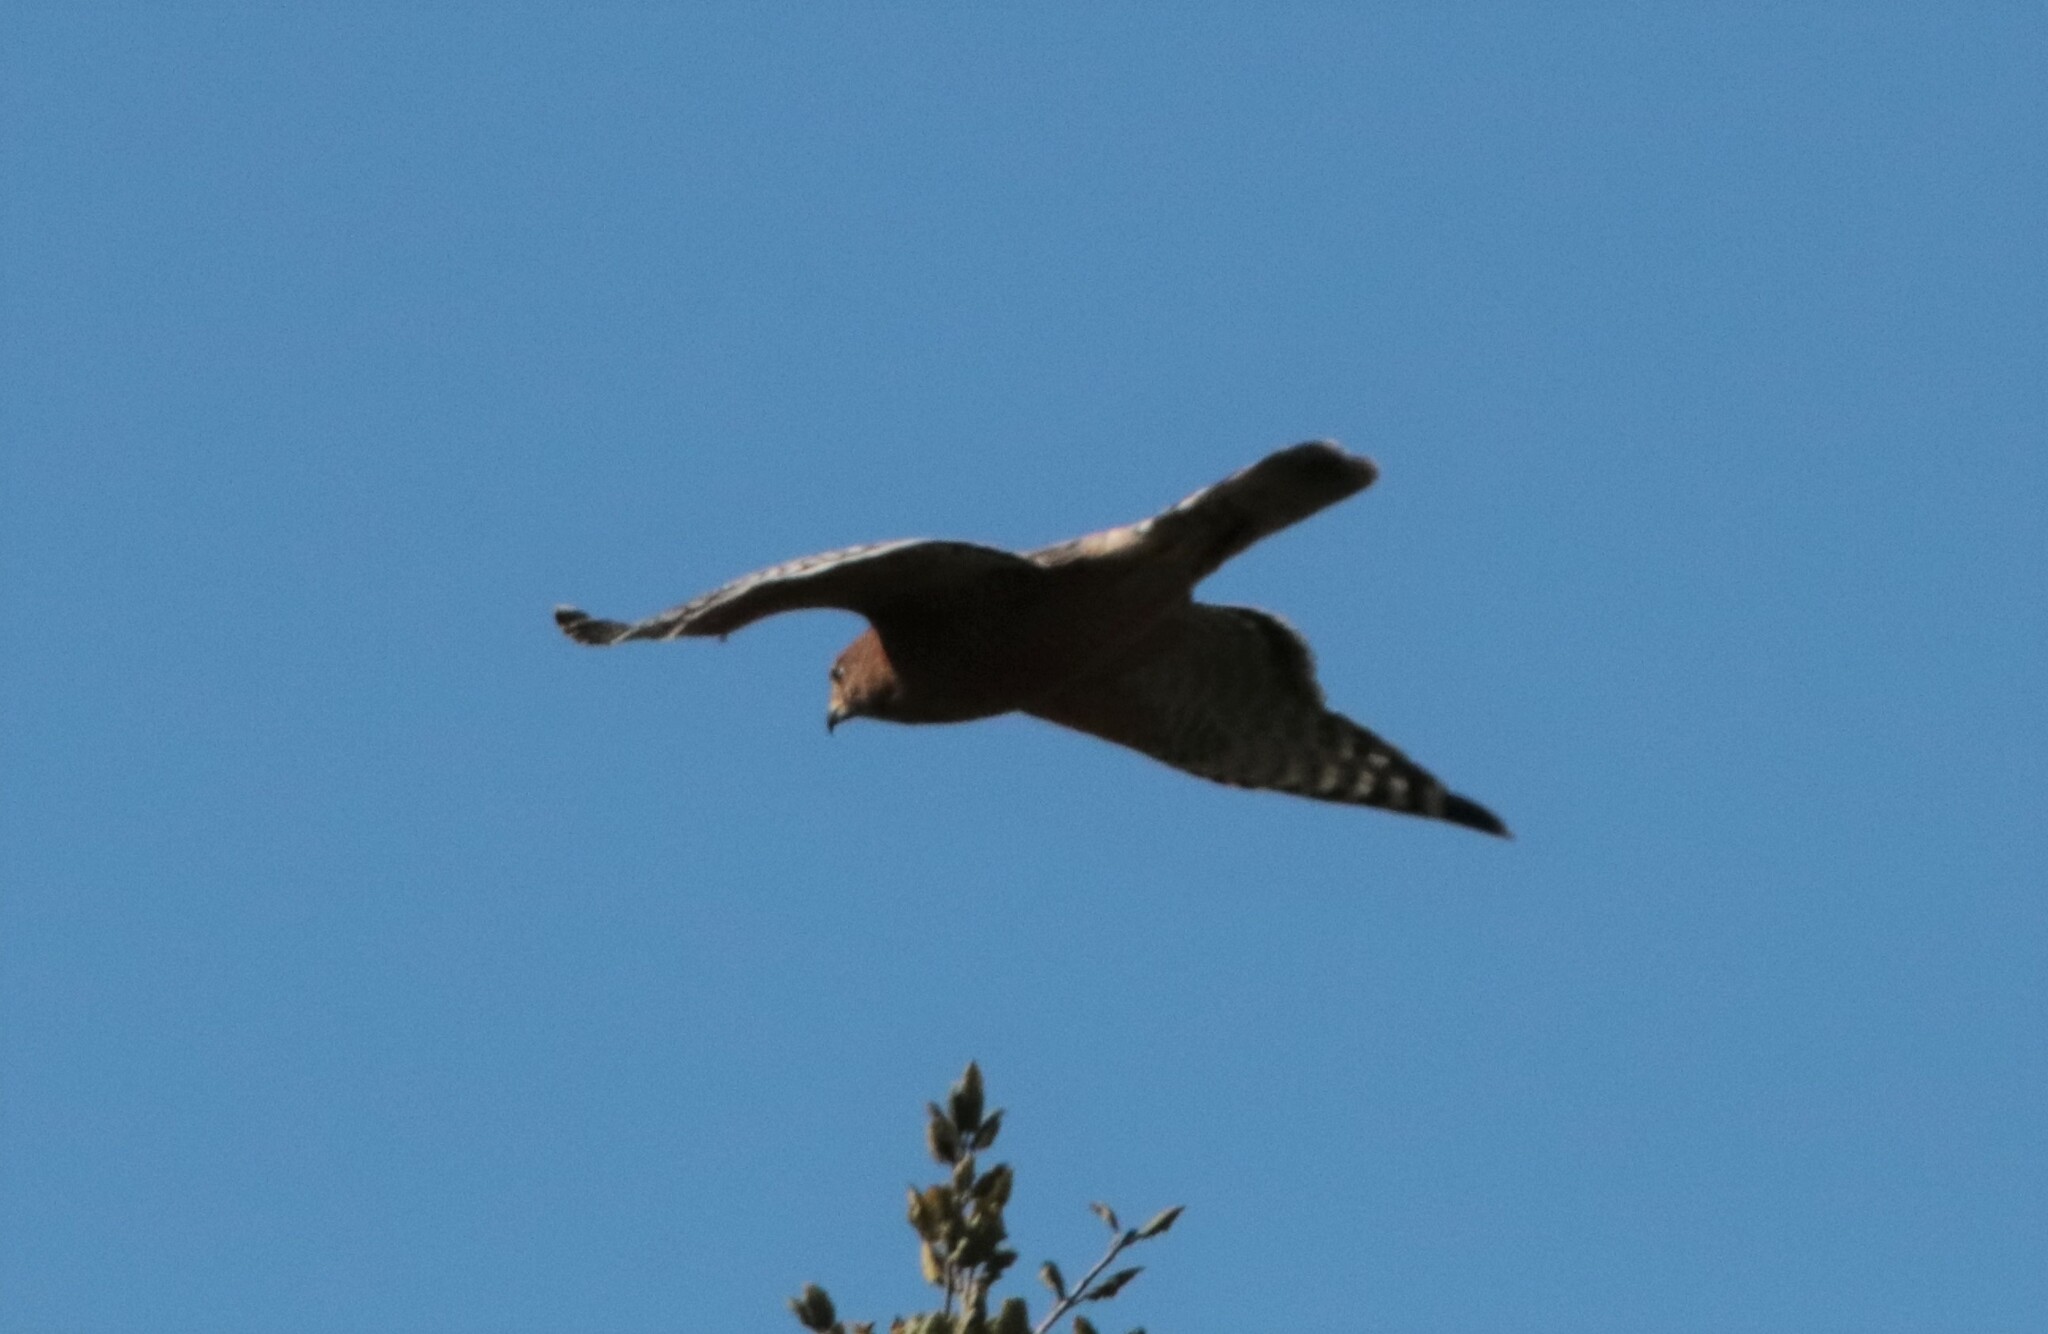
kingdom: Animalia
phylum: Chordata
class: Aves
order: Accipitriformes
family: Accipitridae
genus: Buteo
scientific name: Buteo lineatus
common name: Red-shouldered hawk
